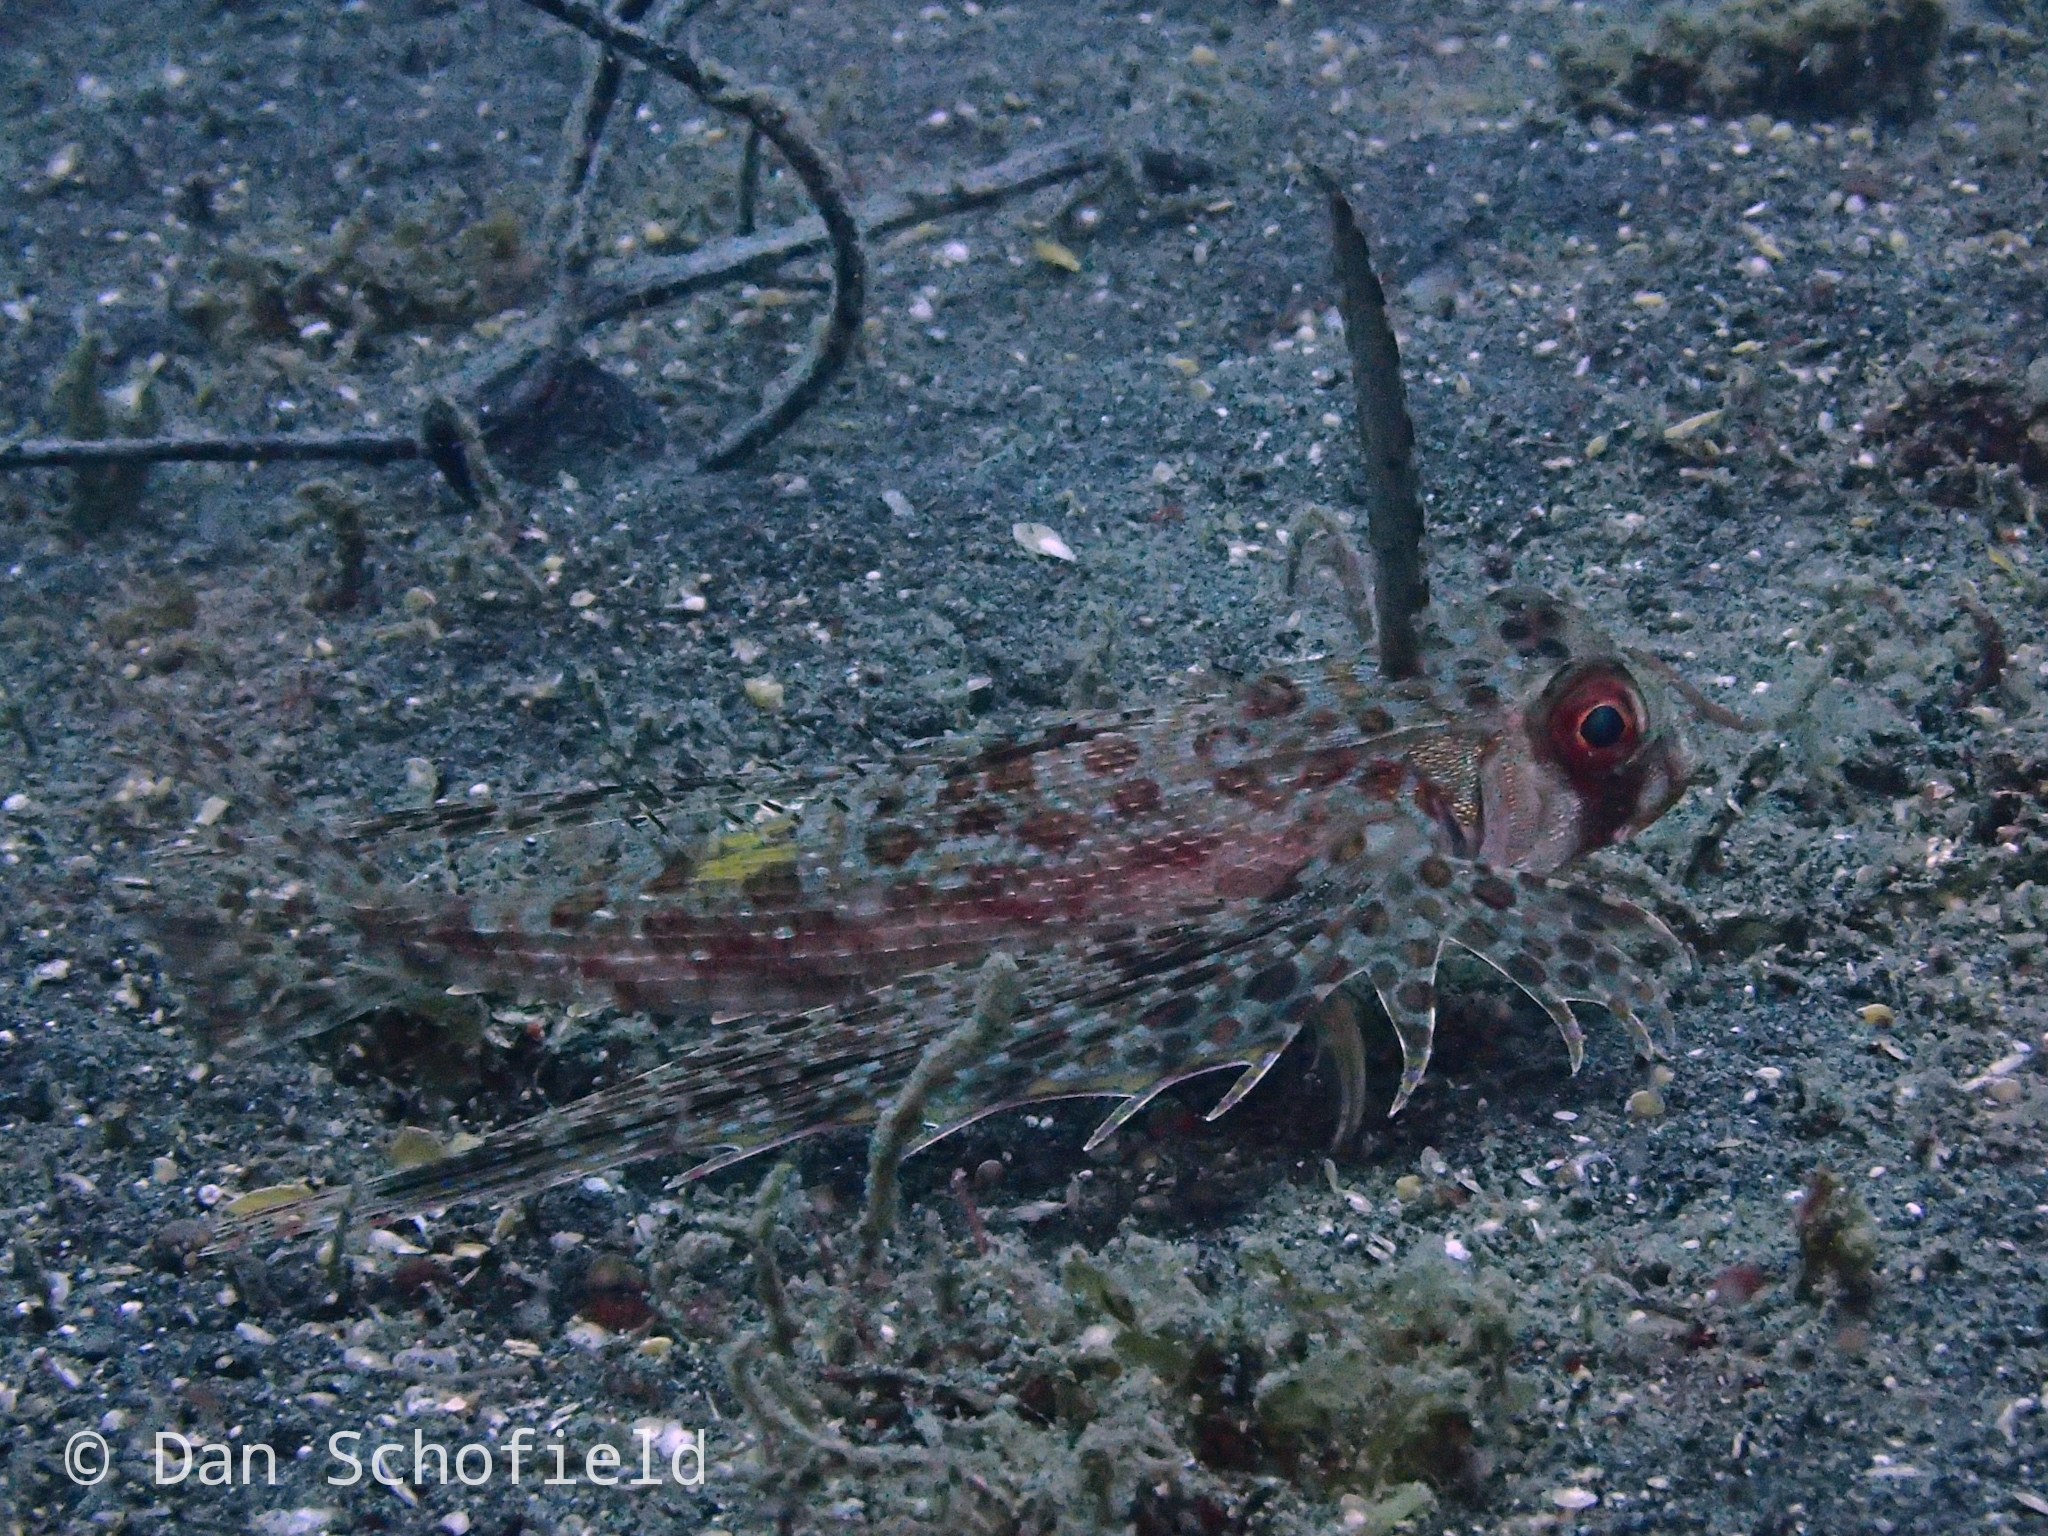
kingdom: Animalia
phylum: Chordata
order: Scorpaeniformes
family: Dactylopteridae
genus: Dactyloptena
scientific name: Dactyloptena orientalis
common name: Flying gurnard
